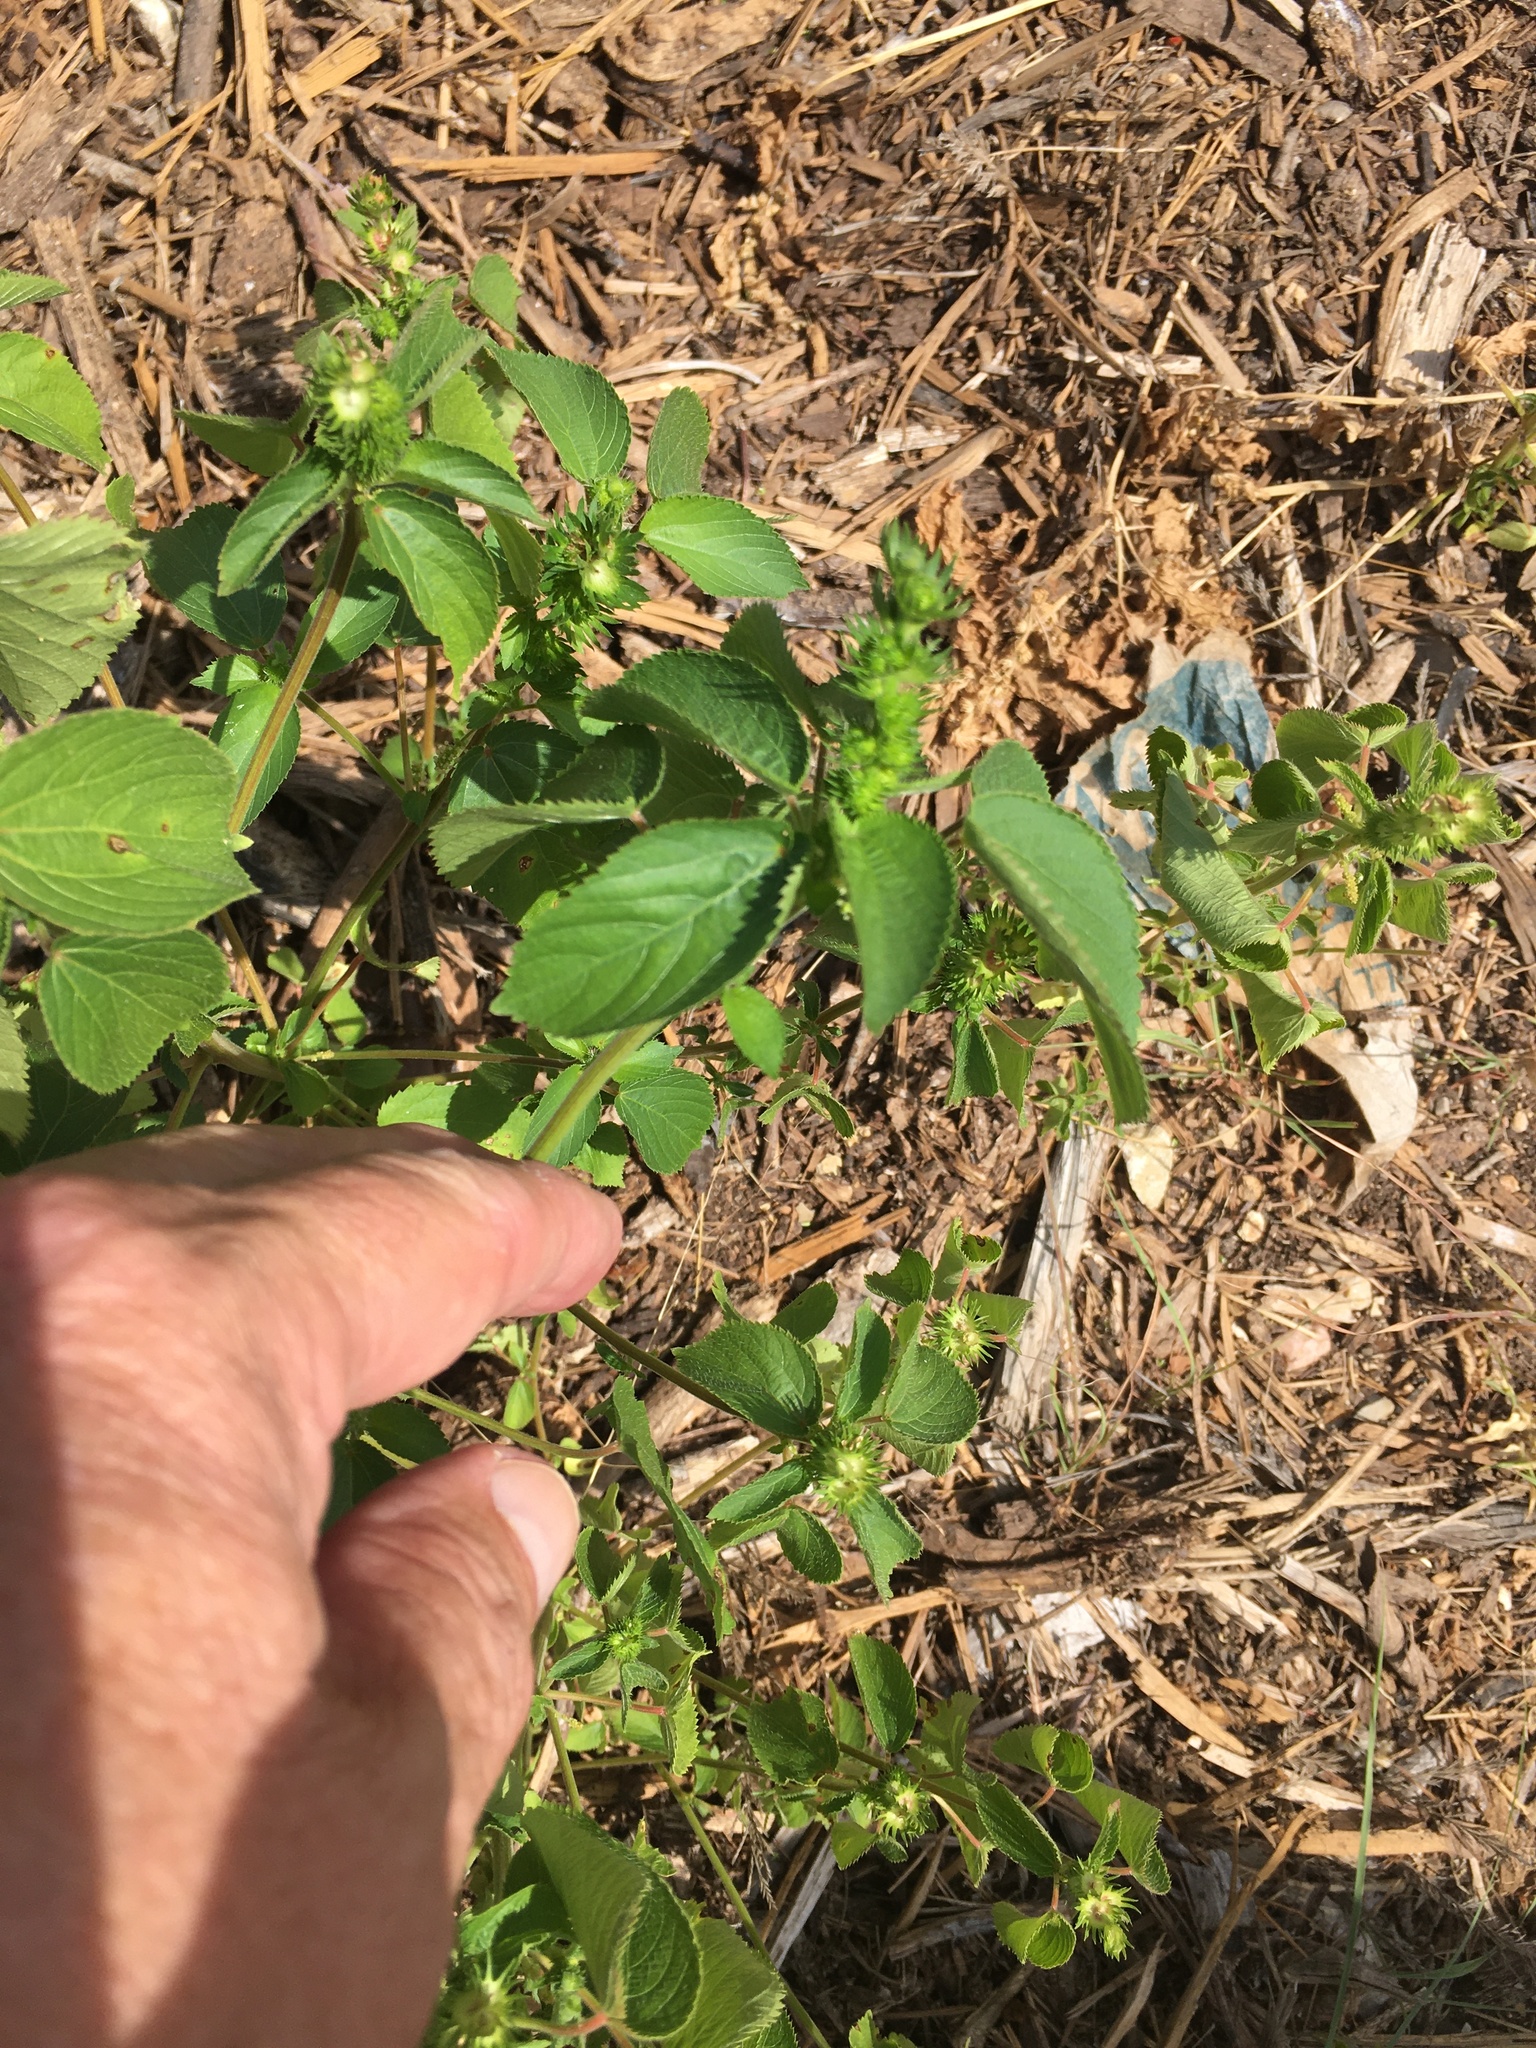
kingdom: Plantae
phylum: Tracheophyta
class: Magnoliopsida
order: Malpighiales
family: Euphorbiaceae
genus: Acalypha
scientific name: Acalypha ostryifolia
